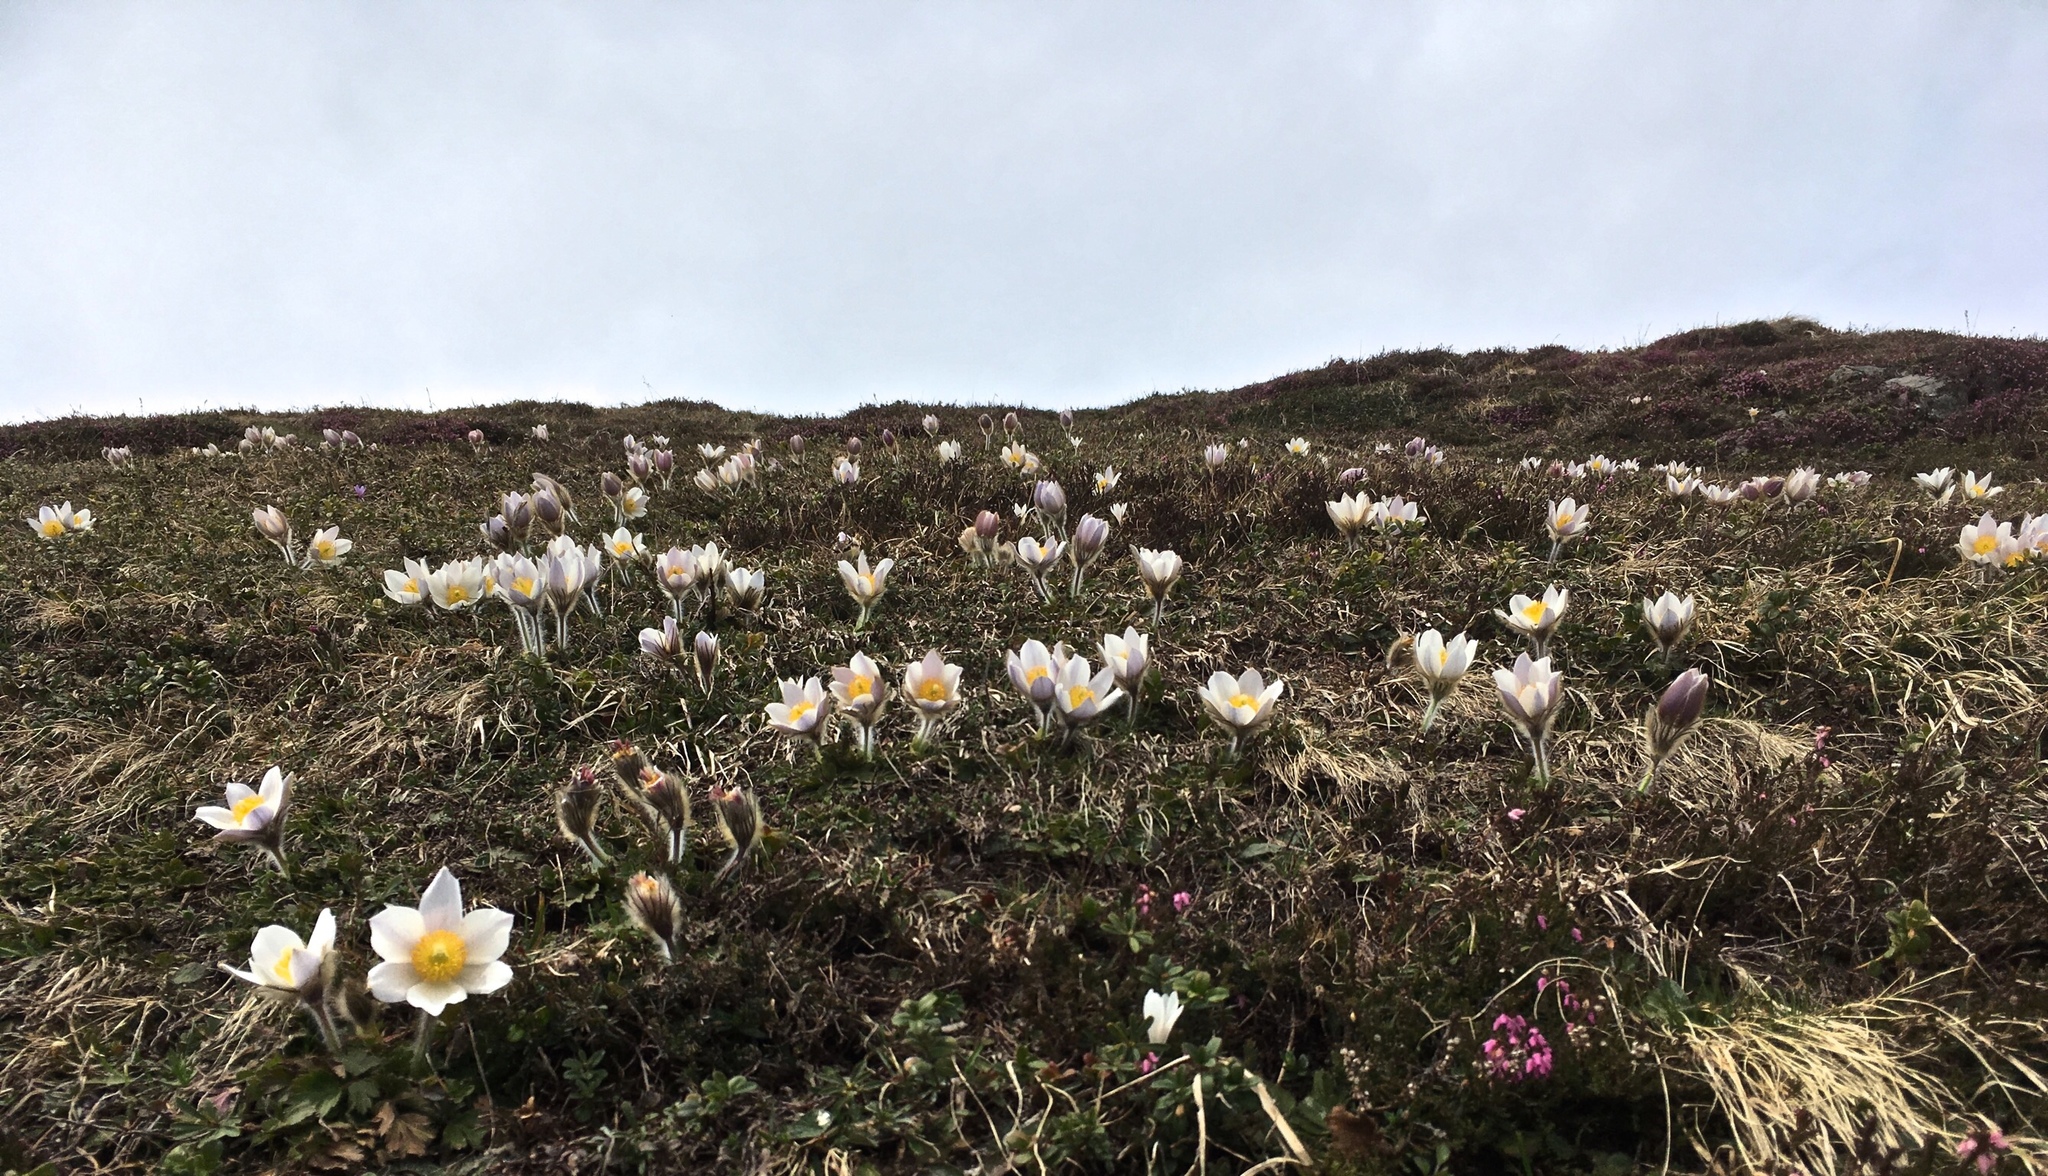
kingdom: Plantae
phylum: Tracheophyta
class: Magnoliopsida
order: Ranunculales
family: Ranunculaceae
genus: Pulsatilla
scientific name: Pulsatilla vernalis
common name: Spring pasque flower
